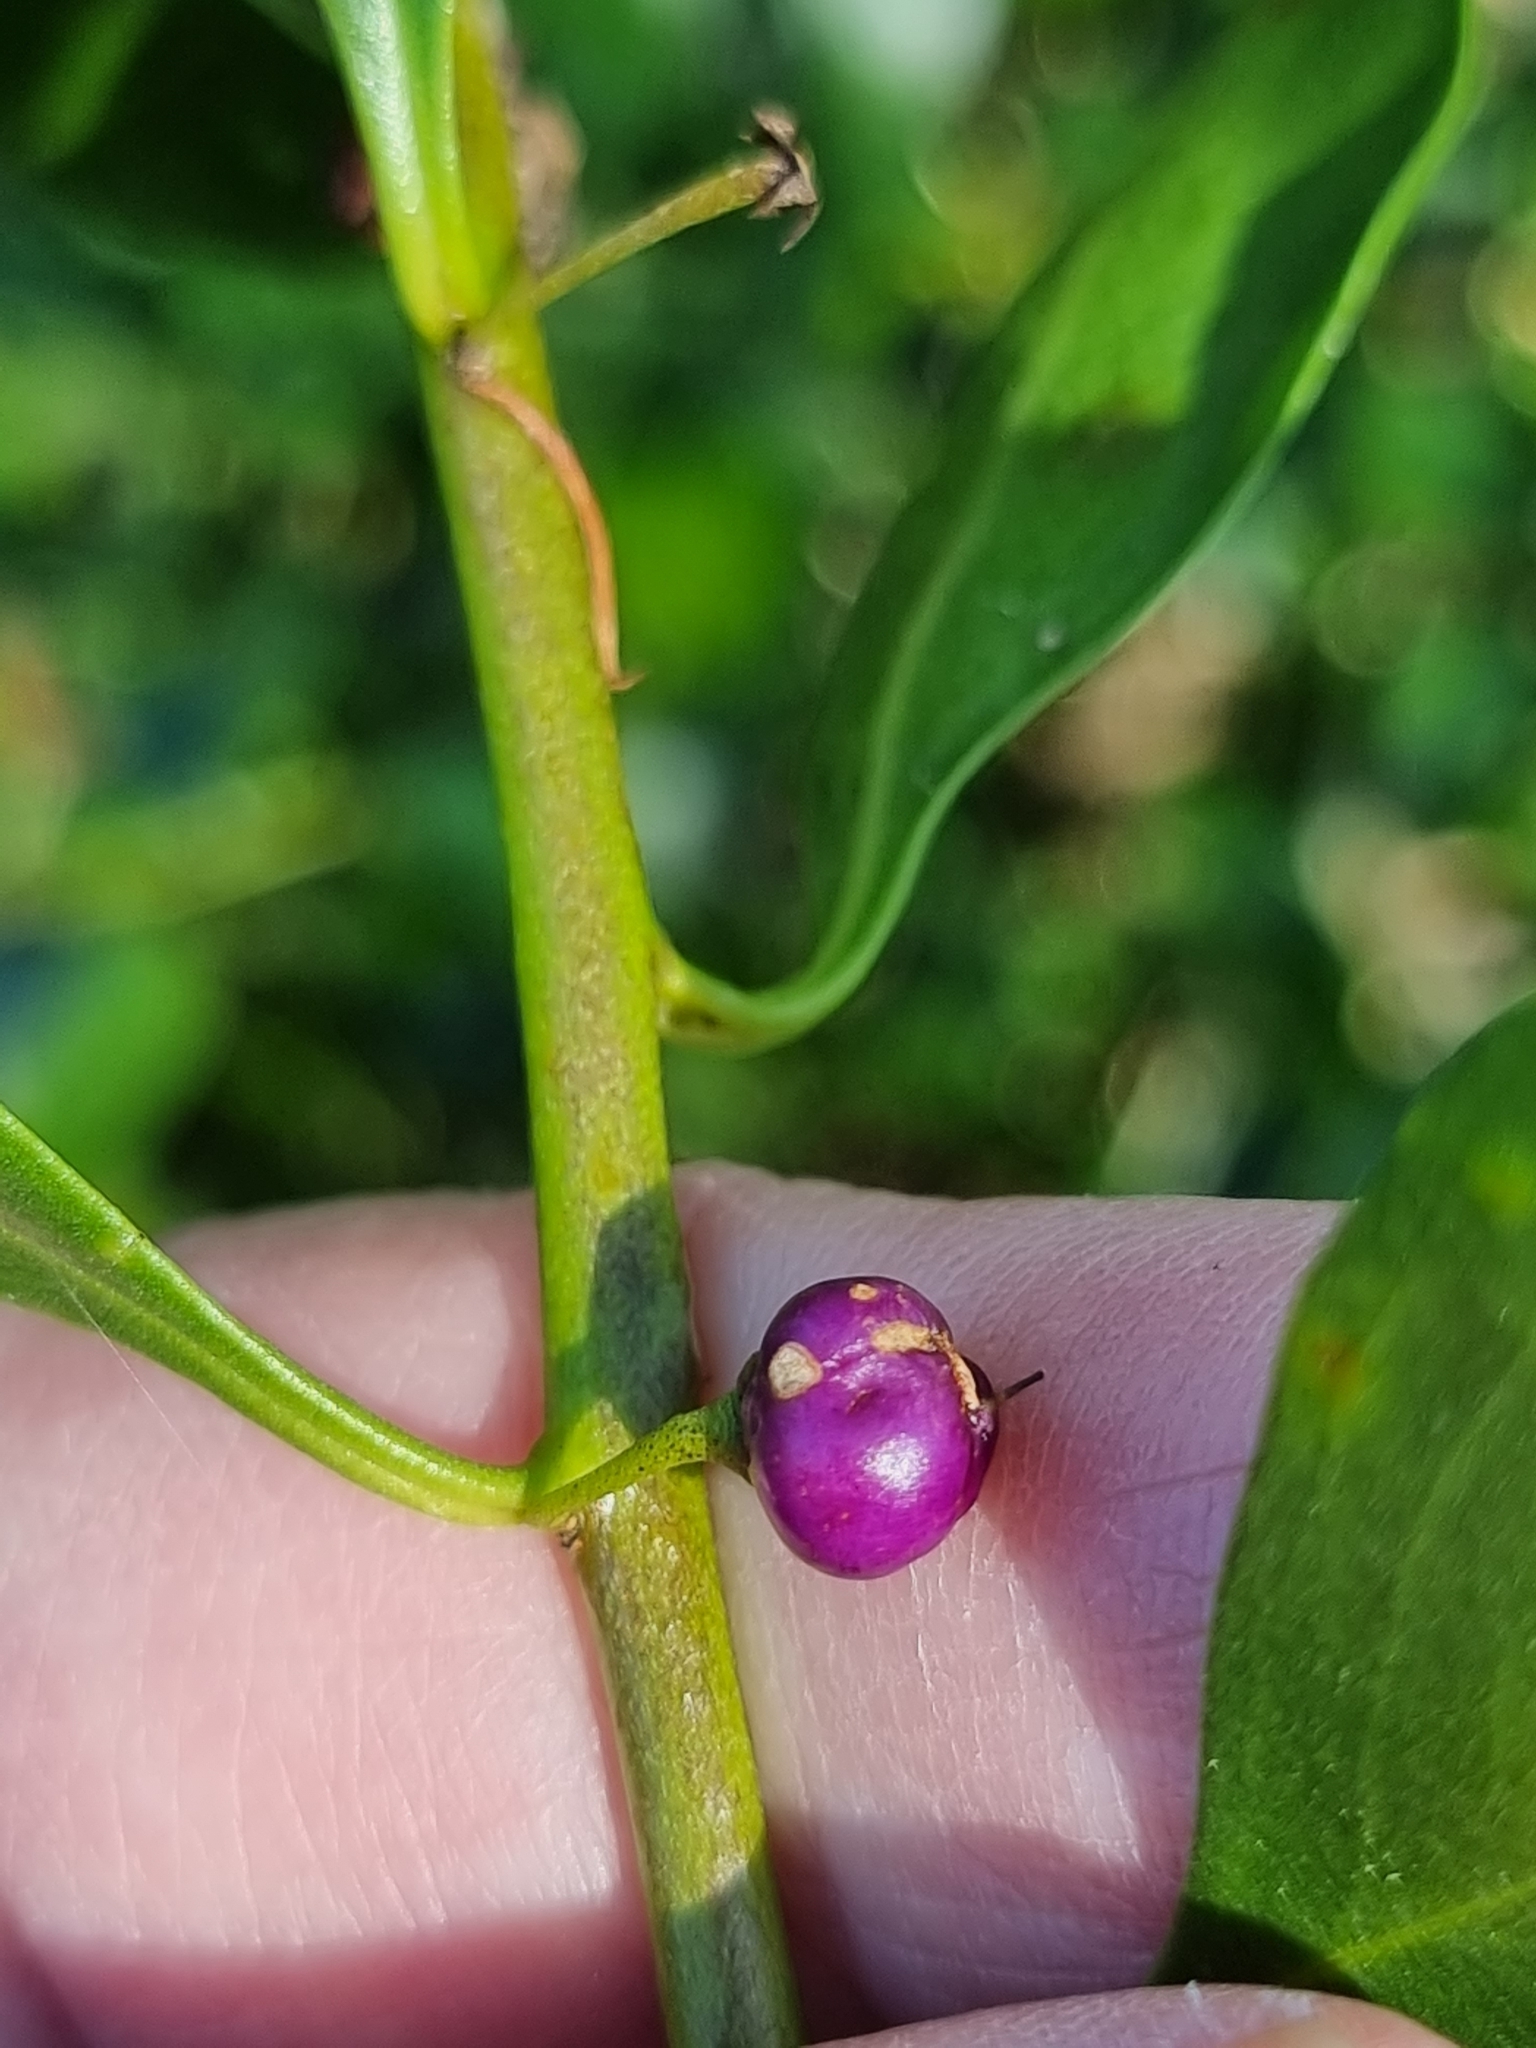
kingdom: Plantae
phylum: Tracheophyta
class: Magnoliopsida
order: Lamiales
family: Scrophulariaceae
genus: Myoporum
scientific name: Myoporum boninense
